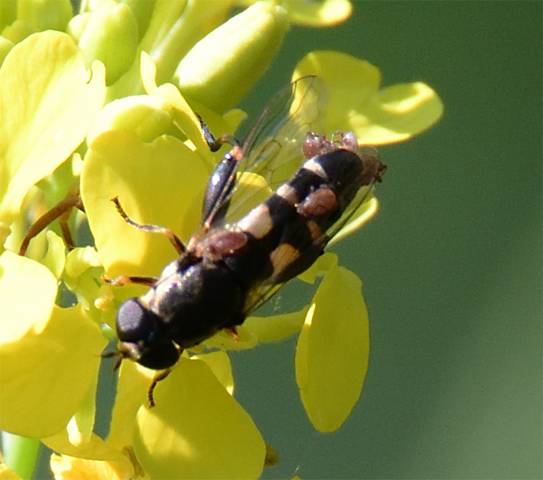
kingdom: Animalia
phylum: Arthropoda
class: Insecta
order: Diptera
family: Syrphidae
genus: Syritta
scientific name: Syritta pipiens
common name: Hover fly
